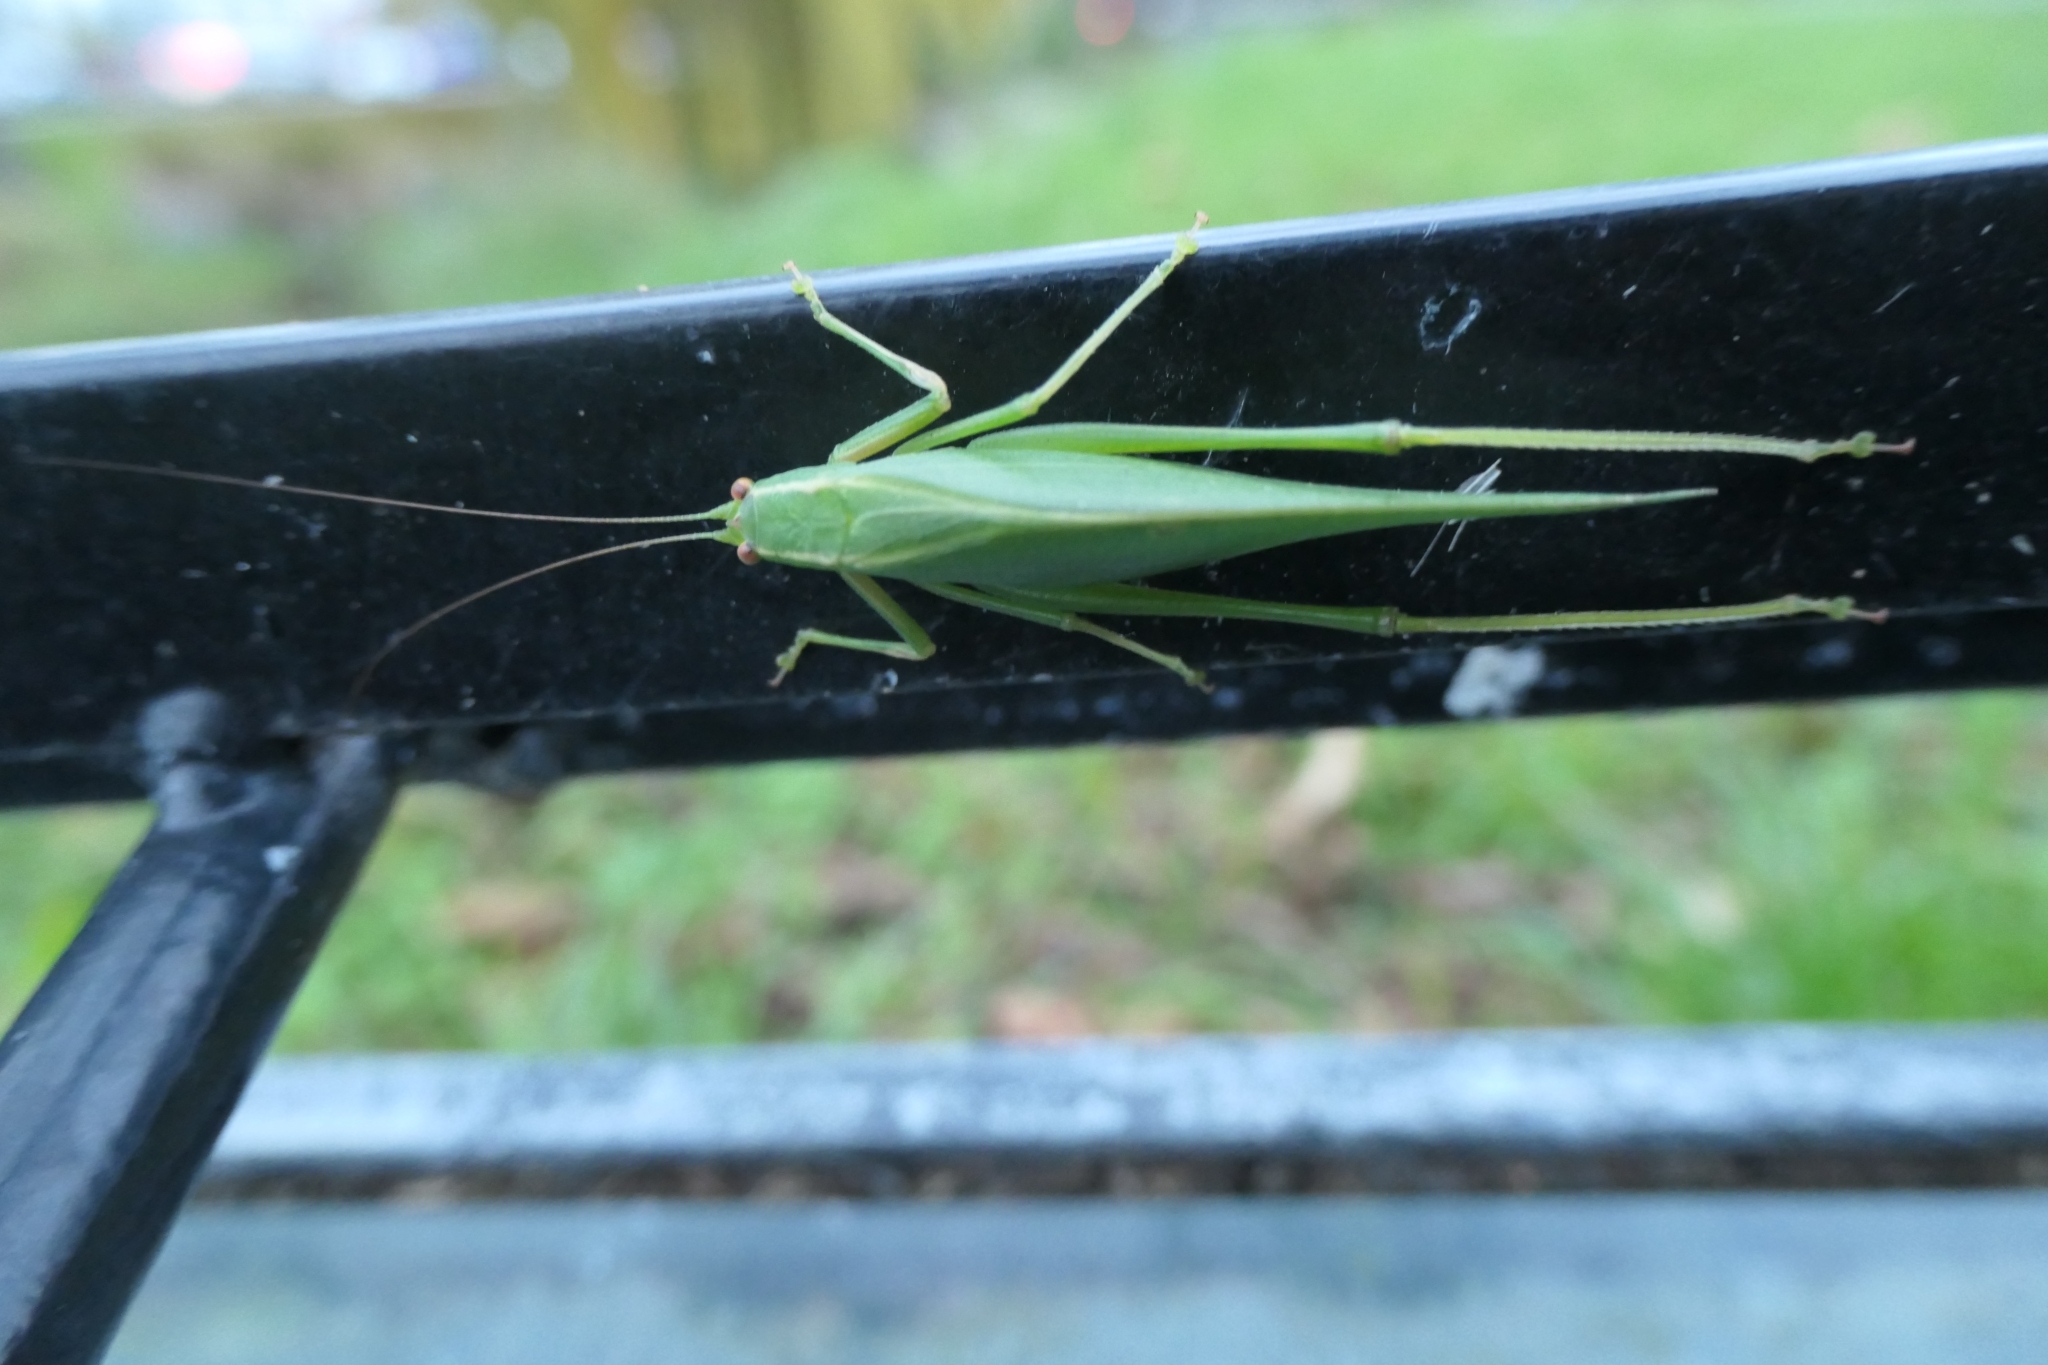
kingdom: Animalia
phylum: Arthropoda
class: Insecta
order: Orthoptera
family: Tettigoniidae
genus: Caedicia
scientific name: Caedicia simplex
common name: Common garden katydid
